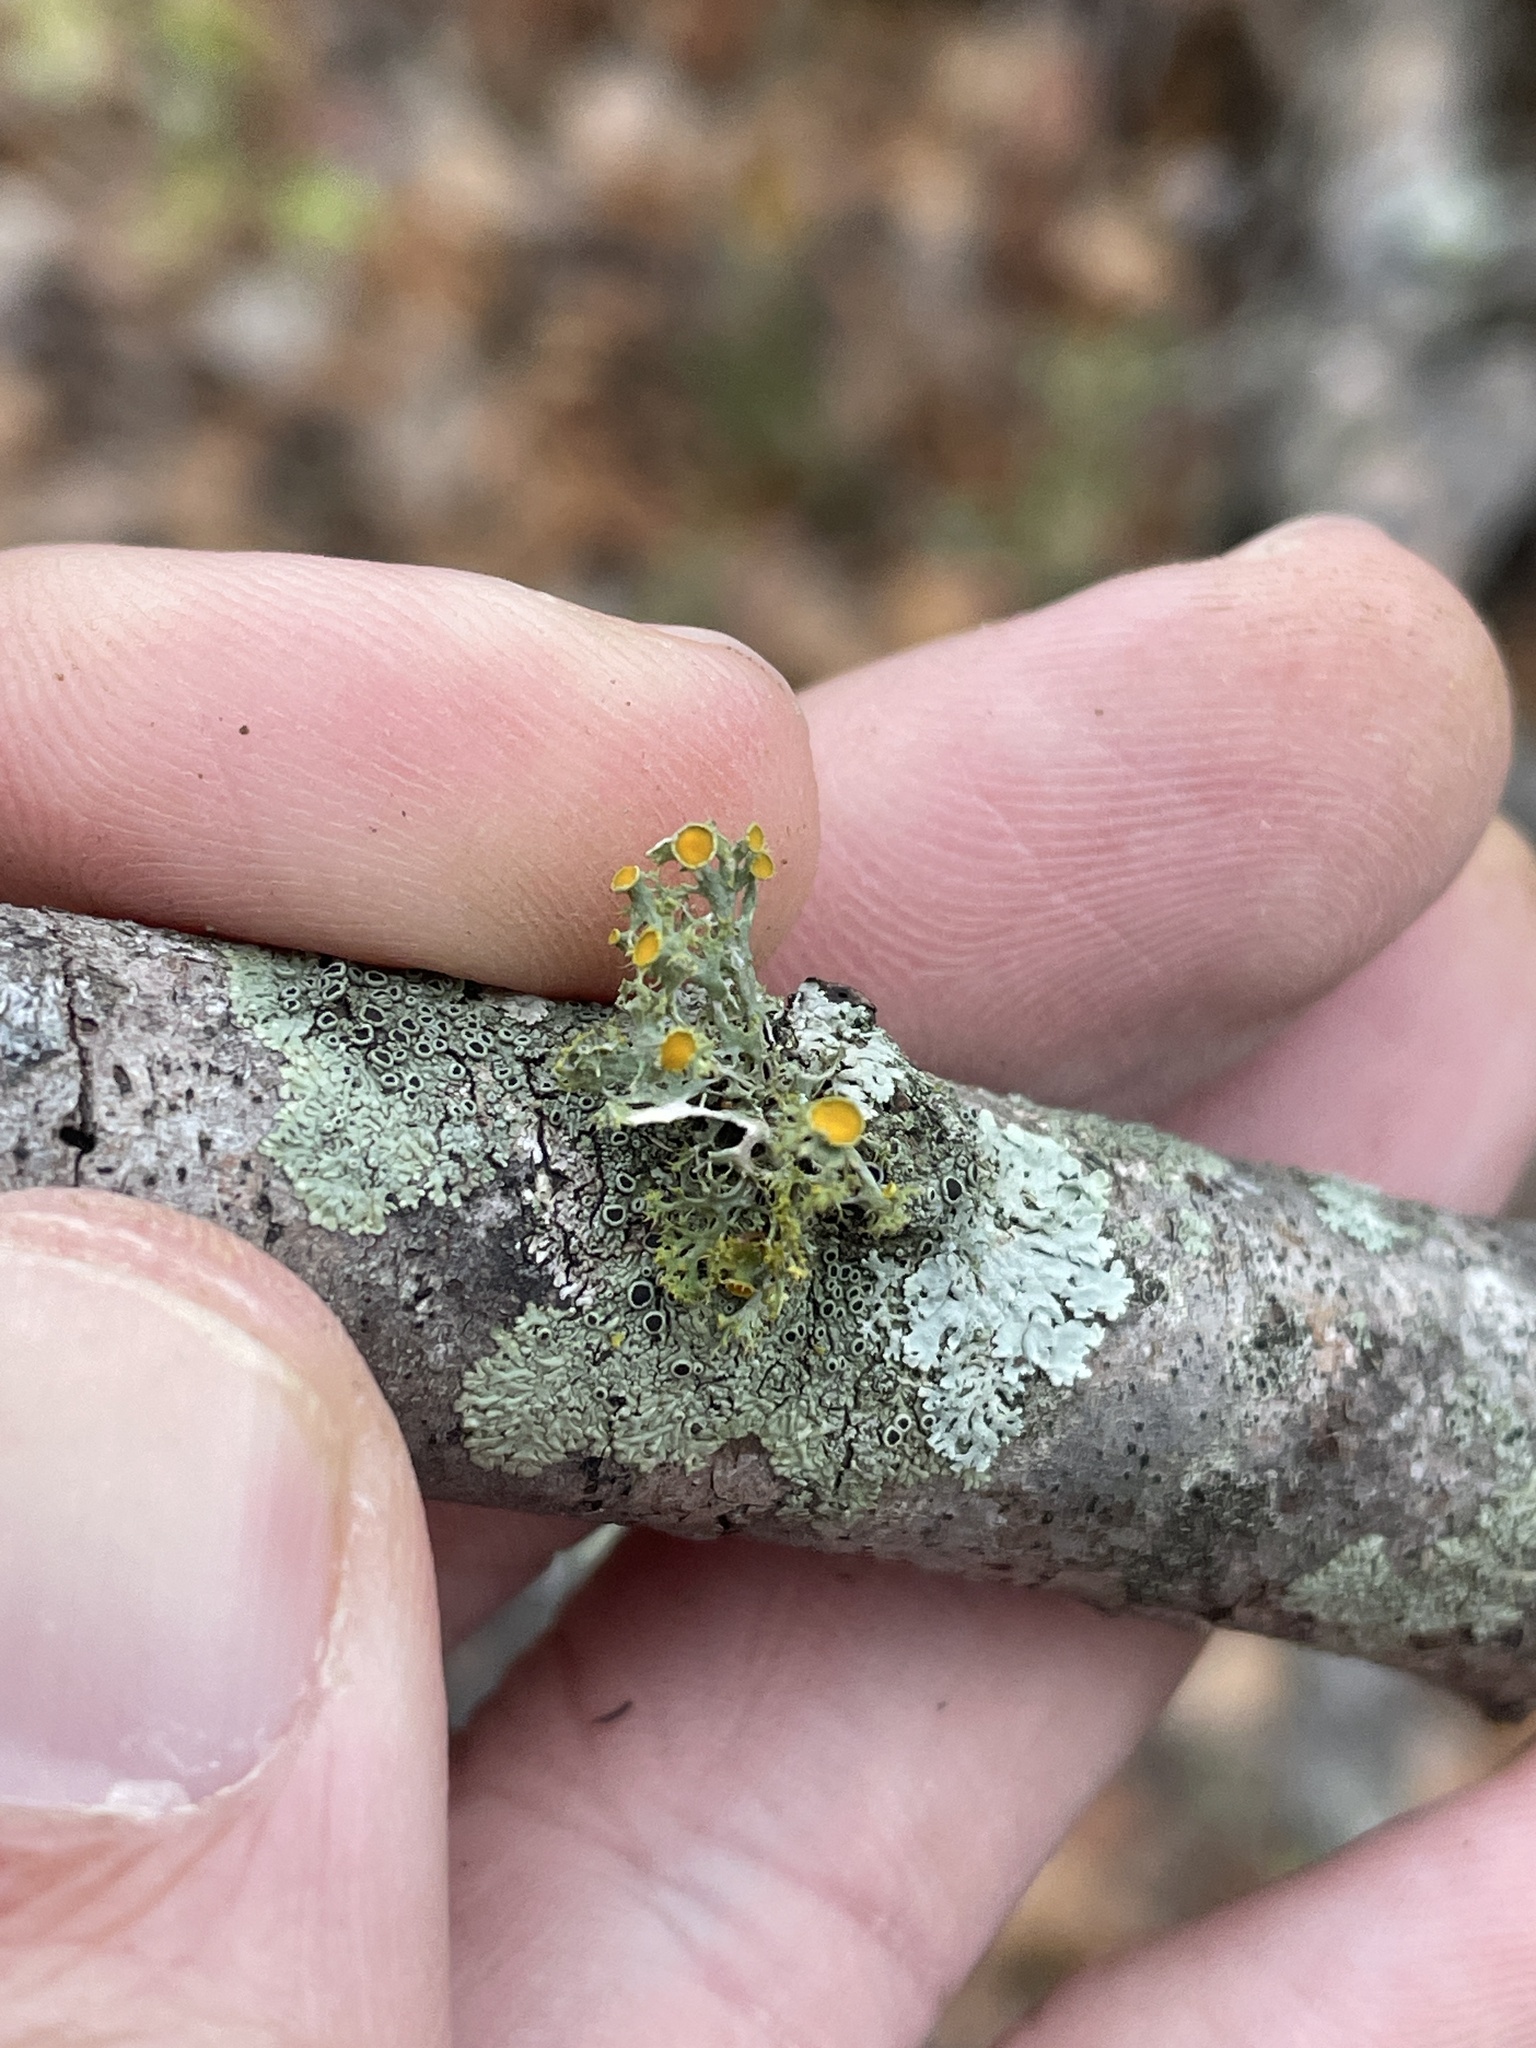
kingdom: Fungi
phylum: Ascomycota
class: Lecanoromycetes
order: Teloschistales
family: Teloschistaceae
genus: Niorma
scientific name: Niorma chrysophthalma
